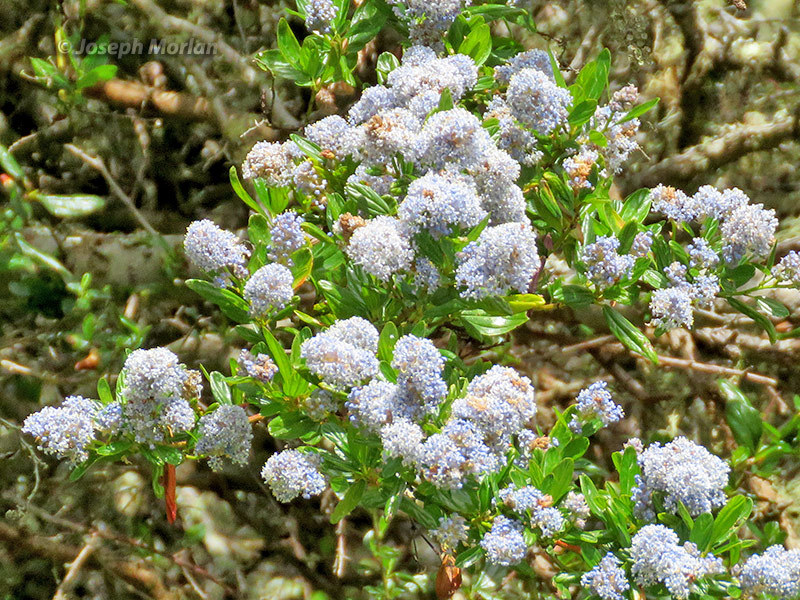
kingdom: Plantae
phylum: Tracheophyta
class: Magnoliopsida
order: Rosales
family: Rhamnaceae
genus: Ceanothus
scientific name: Ceanothus thyrsiflorus
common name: California-lilac
